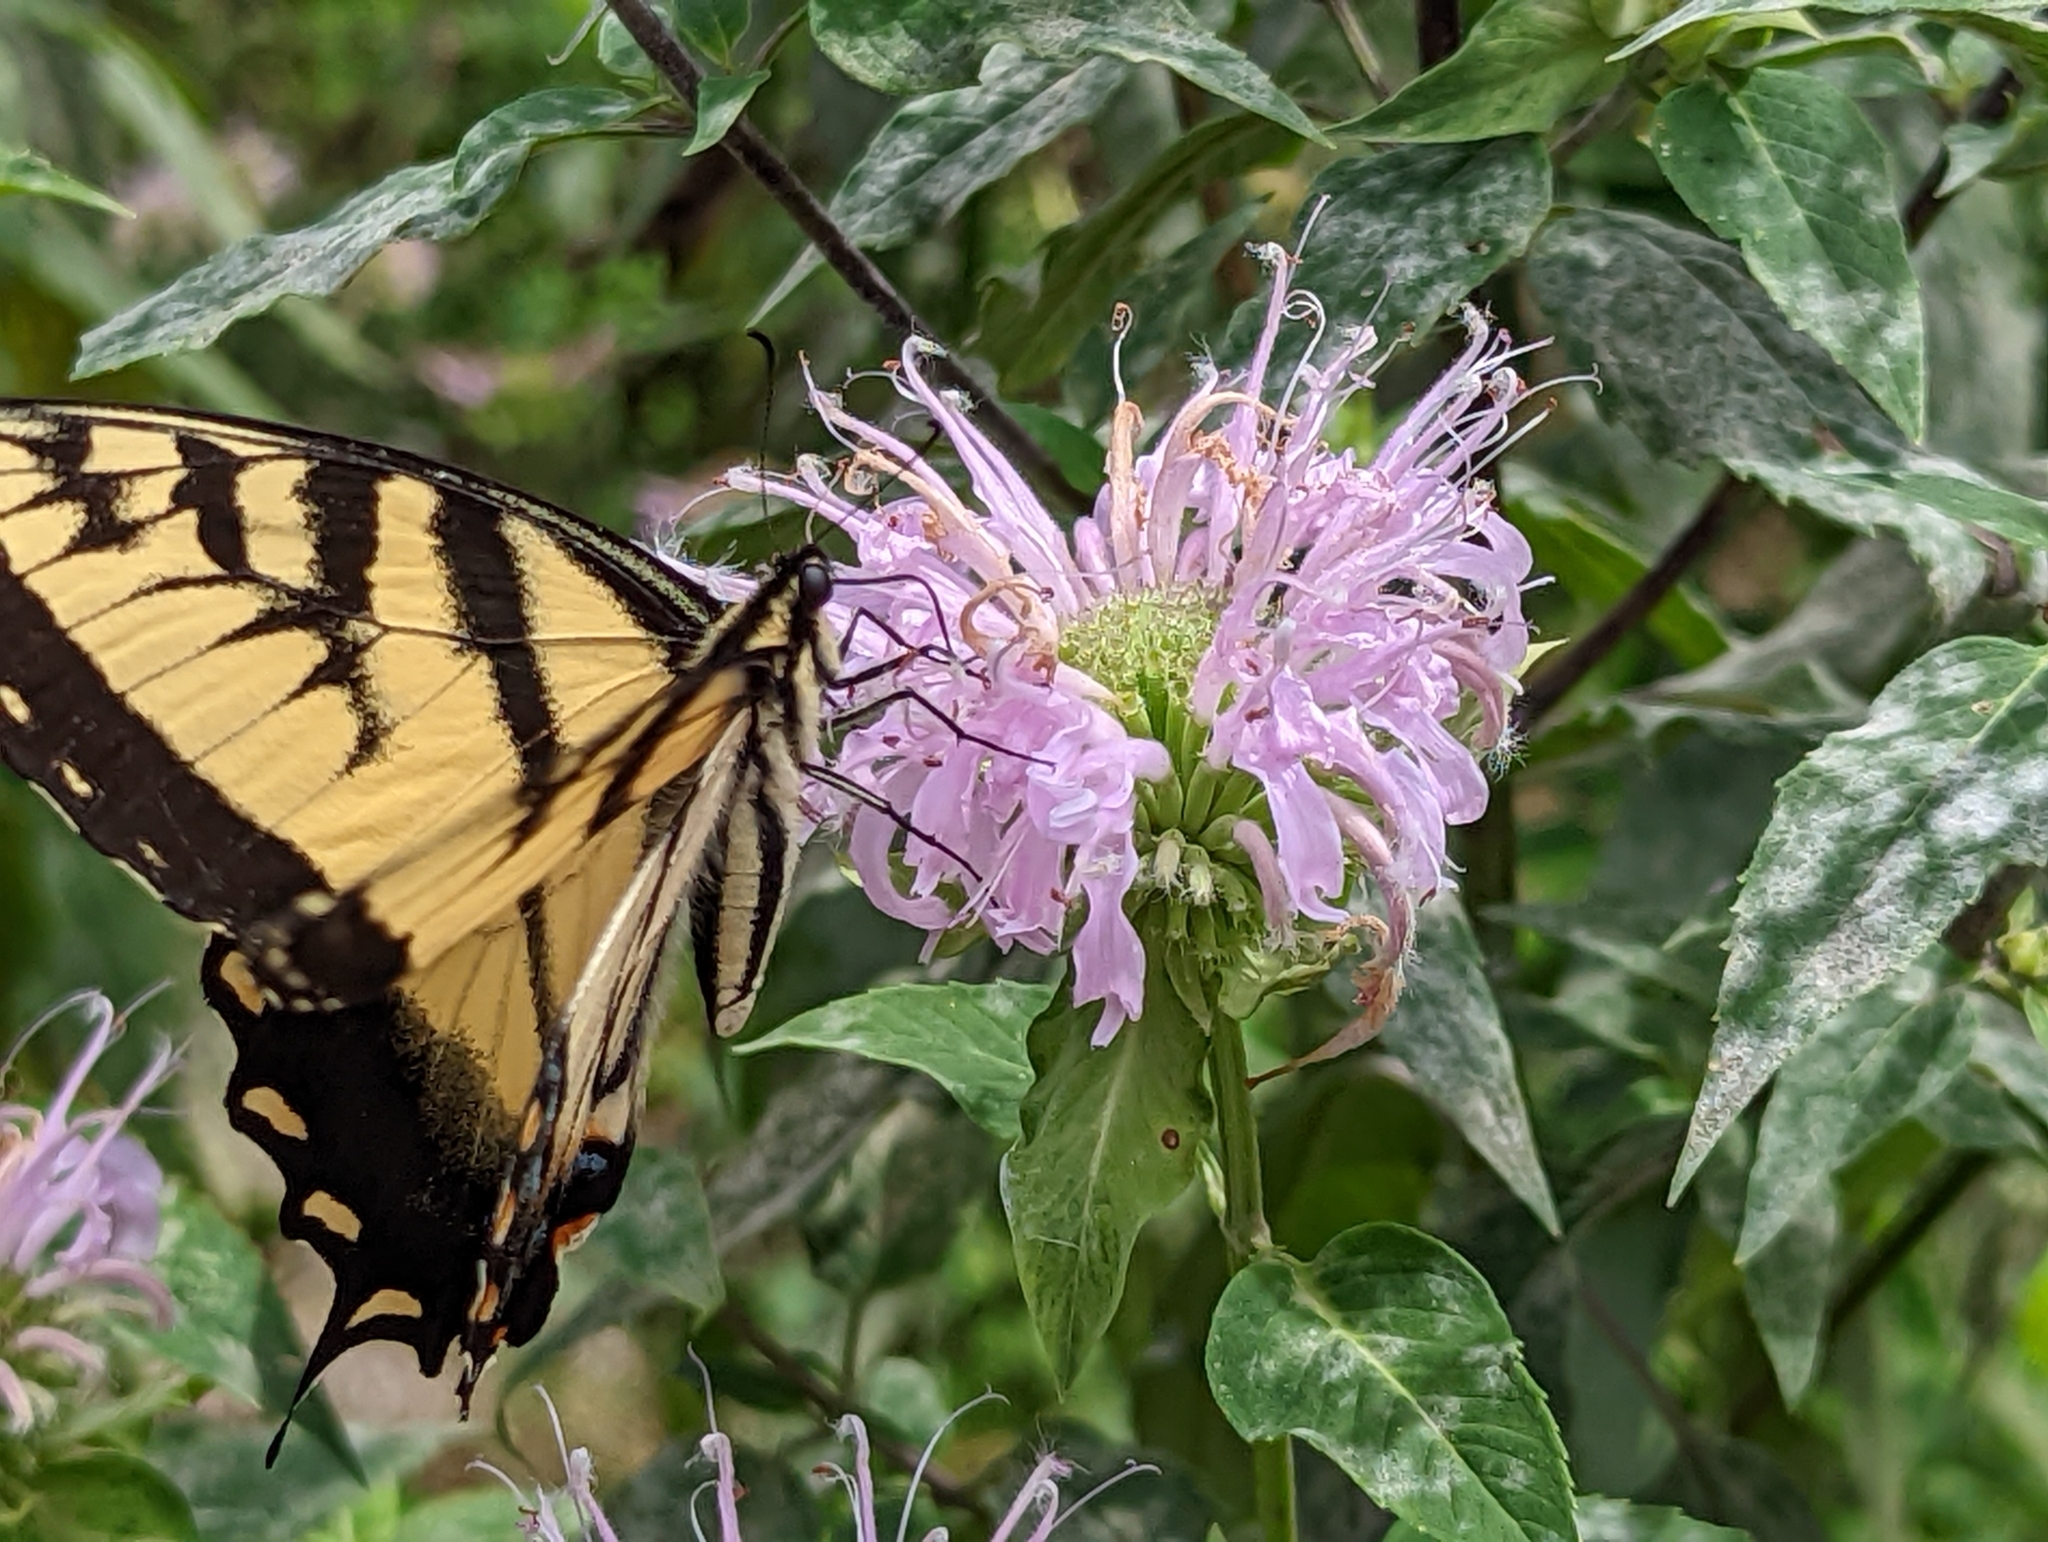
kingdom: Animalia
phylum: Arthropoda
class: Insecta
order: Lepidoptera
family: Papilionidae
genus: Papilio
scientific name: Papilio glaucus
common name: Tiger swallowtail
